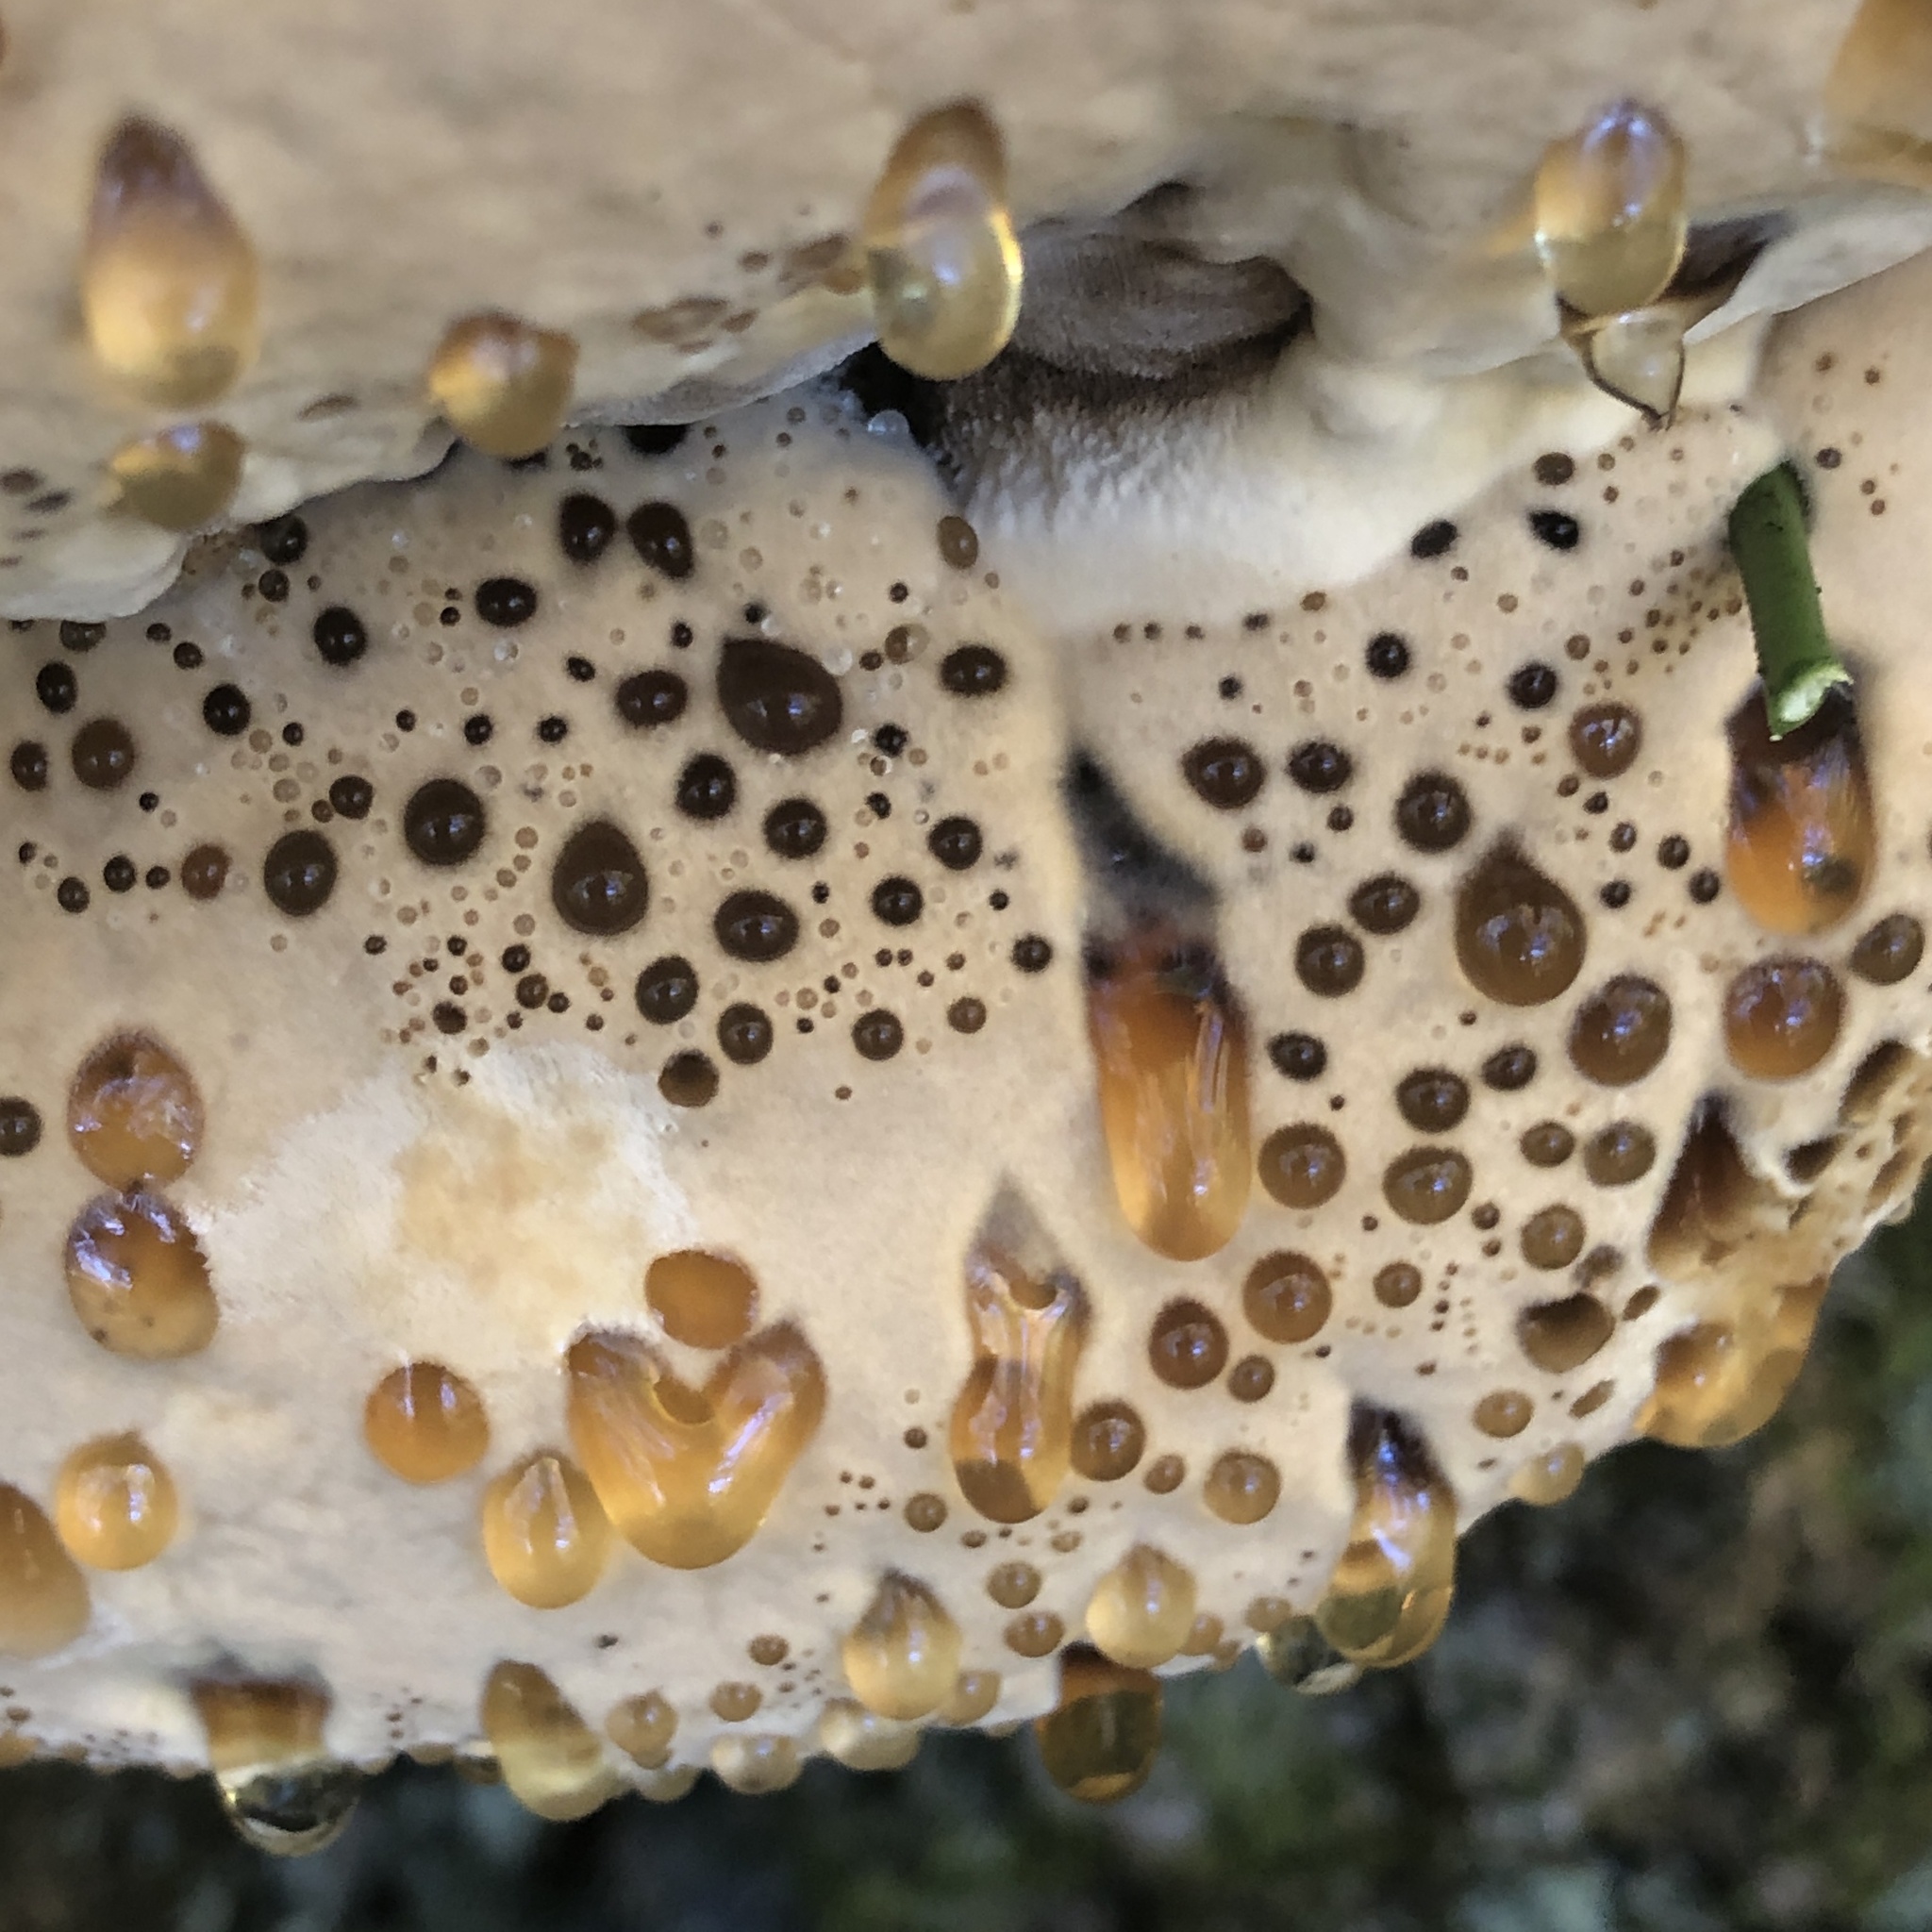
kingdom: Fungi
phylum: Basidiomycota
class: Agaricomycetes
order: Hymenochaetales
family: Hymenochaetaceae
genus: Pseudoinonotus
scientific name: Pseudoinonotus dryadeus
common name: Oak bracket
